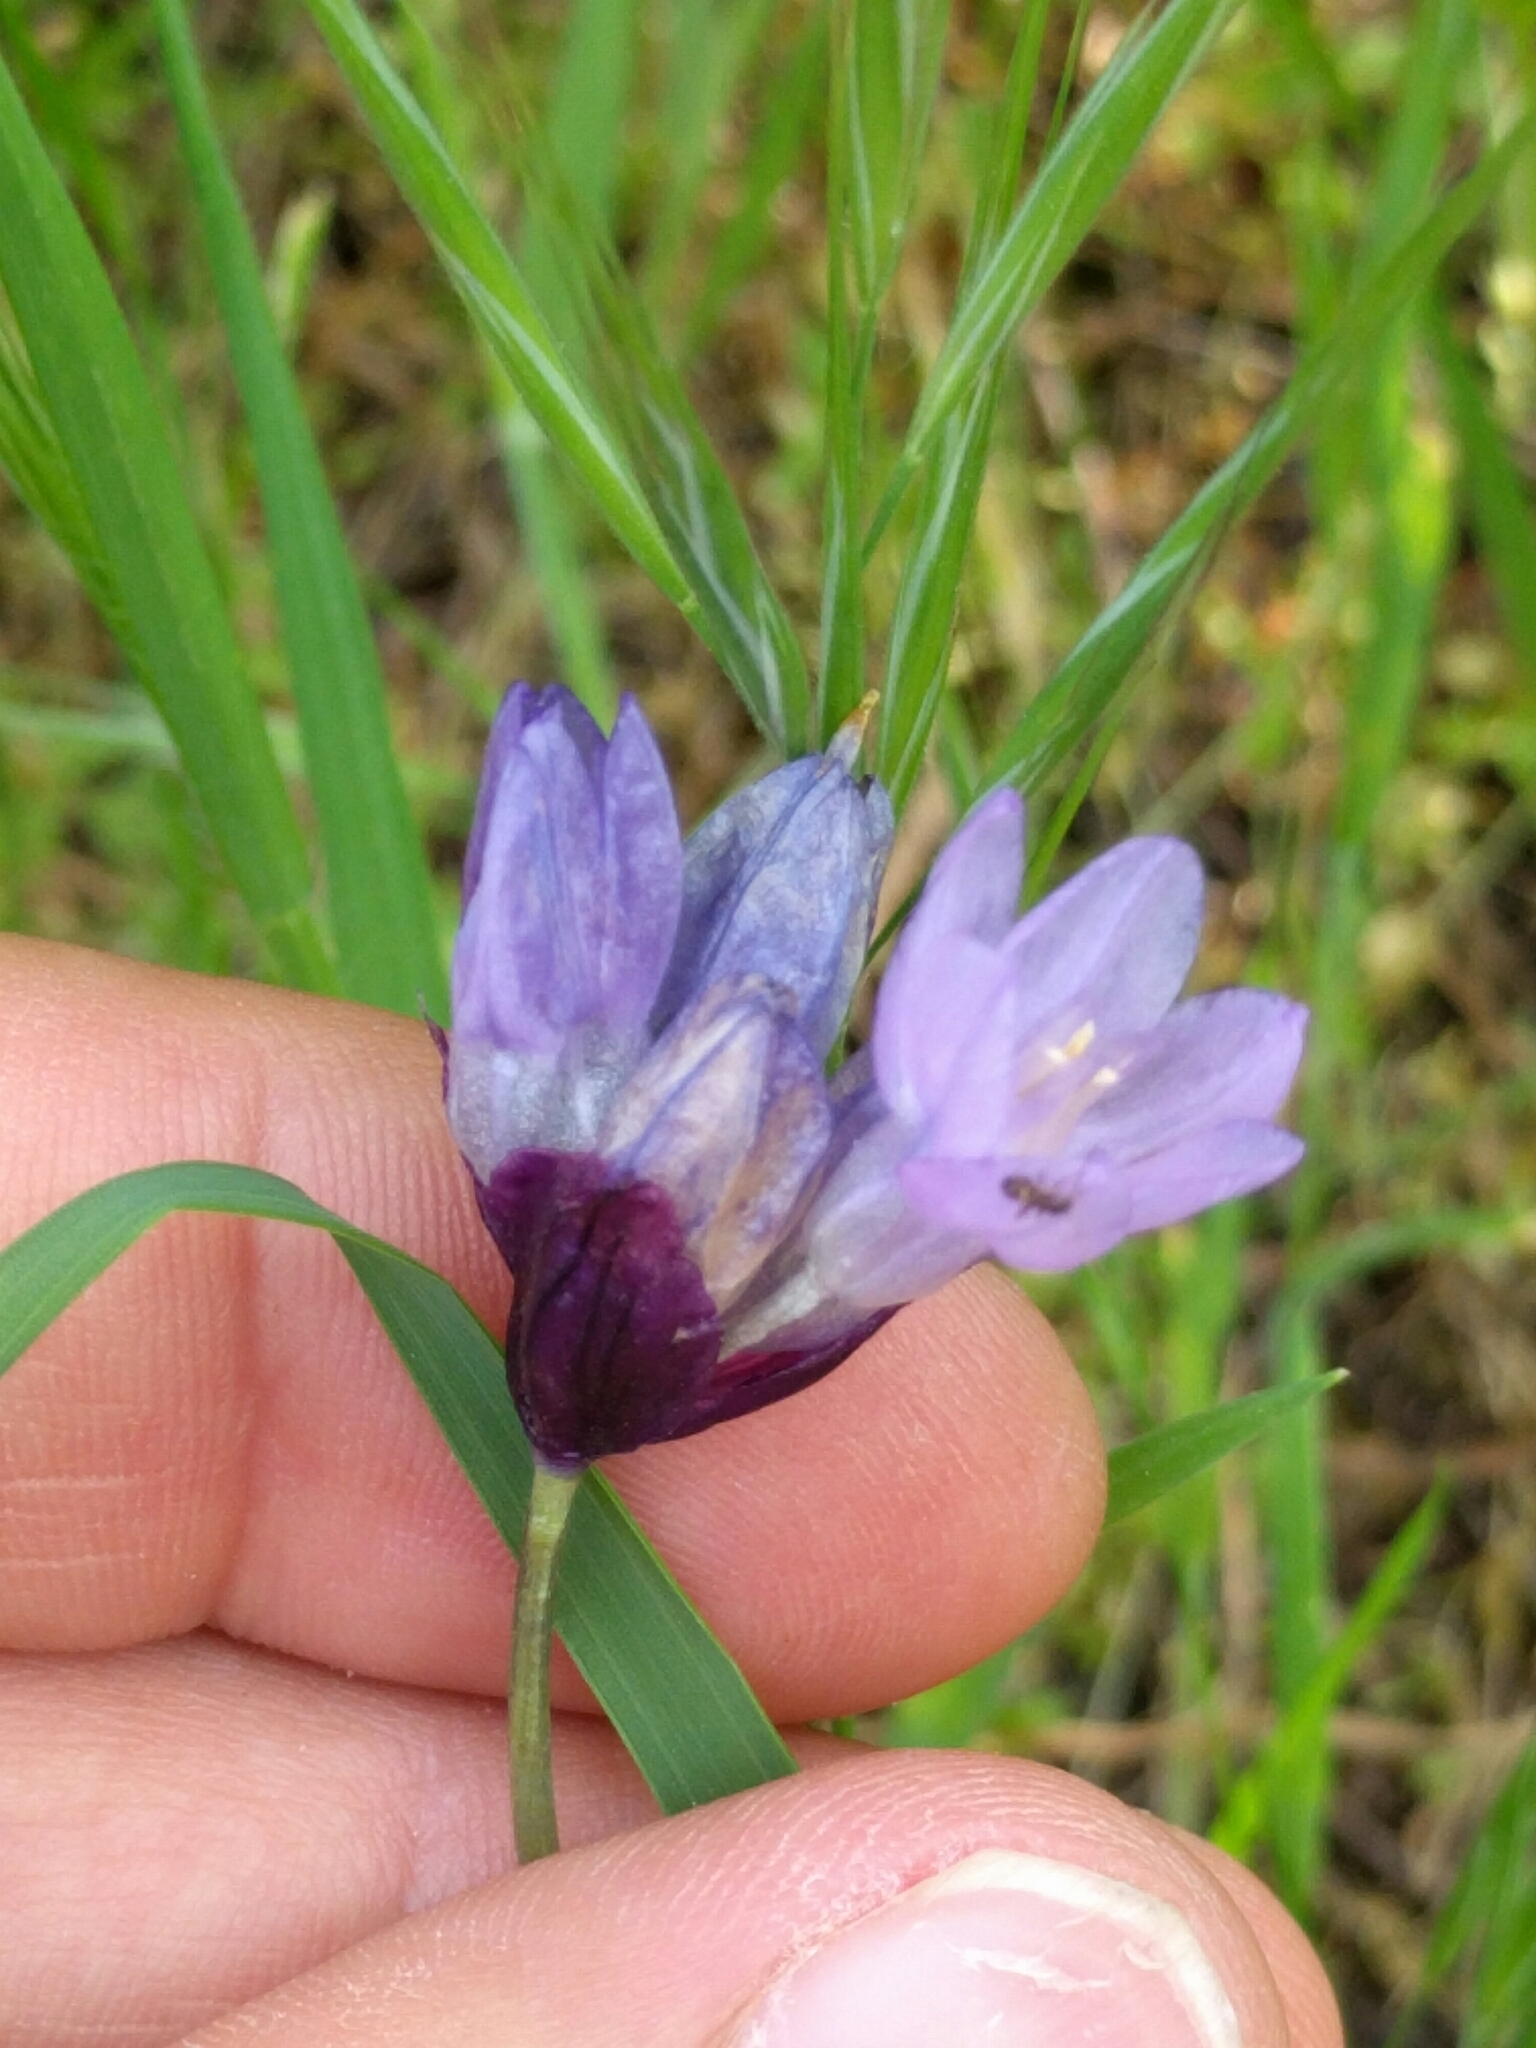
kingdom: Plantae
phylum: Tracheophyta
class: Liliopsida
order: Asparagales
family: Asparagaceae
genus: Dipterostemon
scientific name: Dipterostemon capitatus
